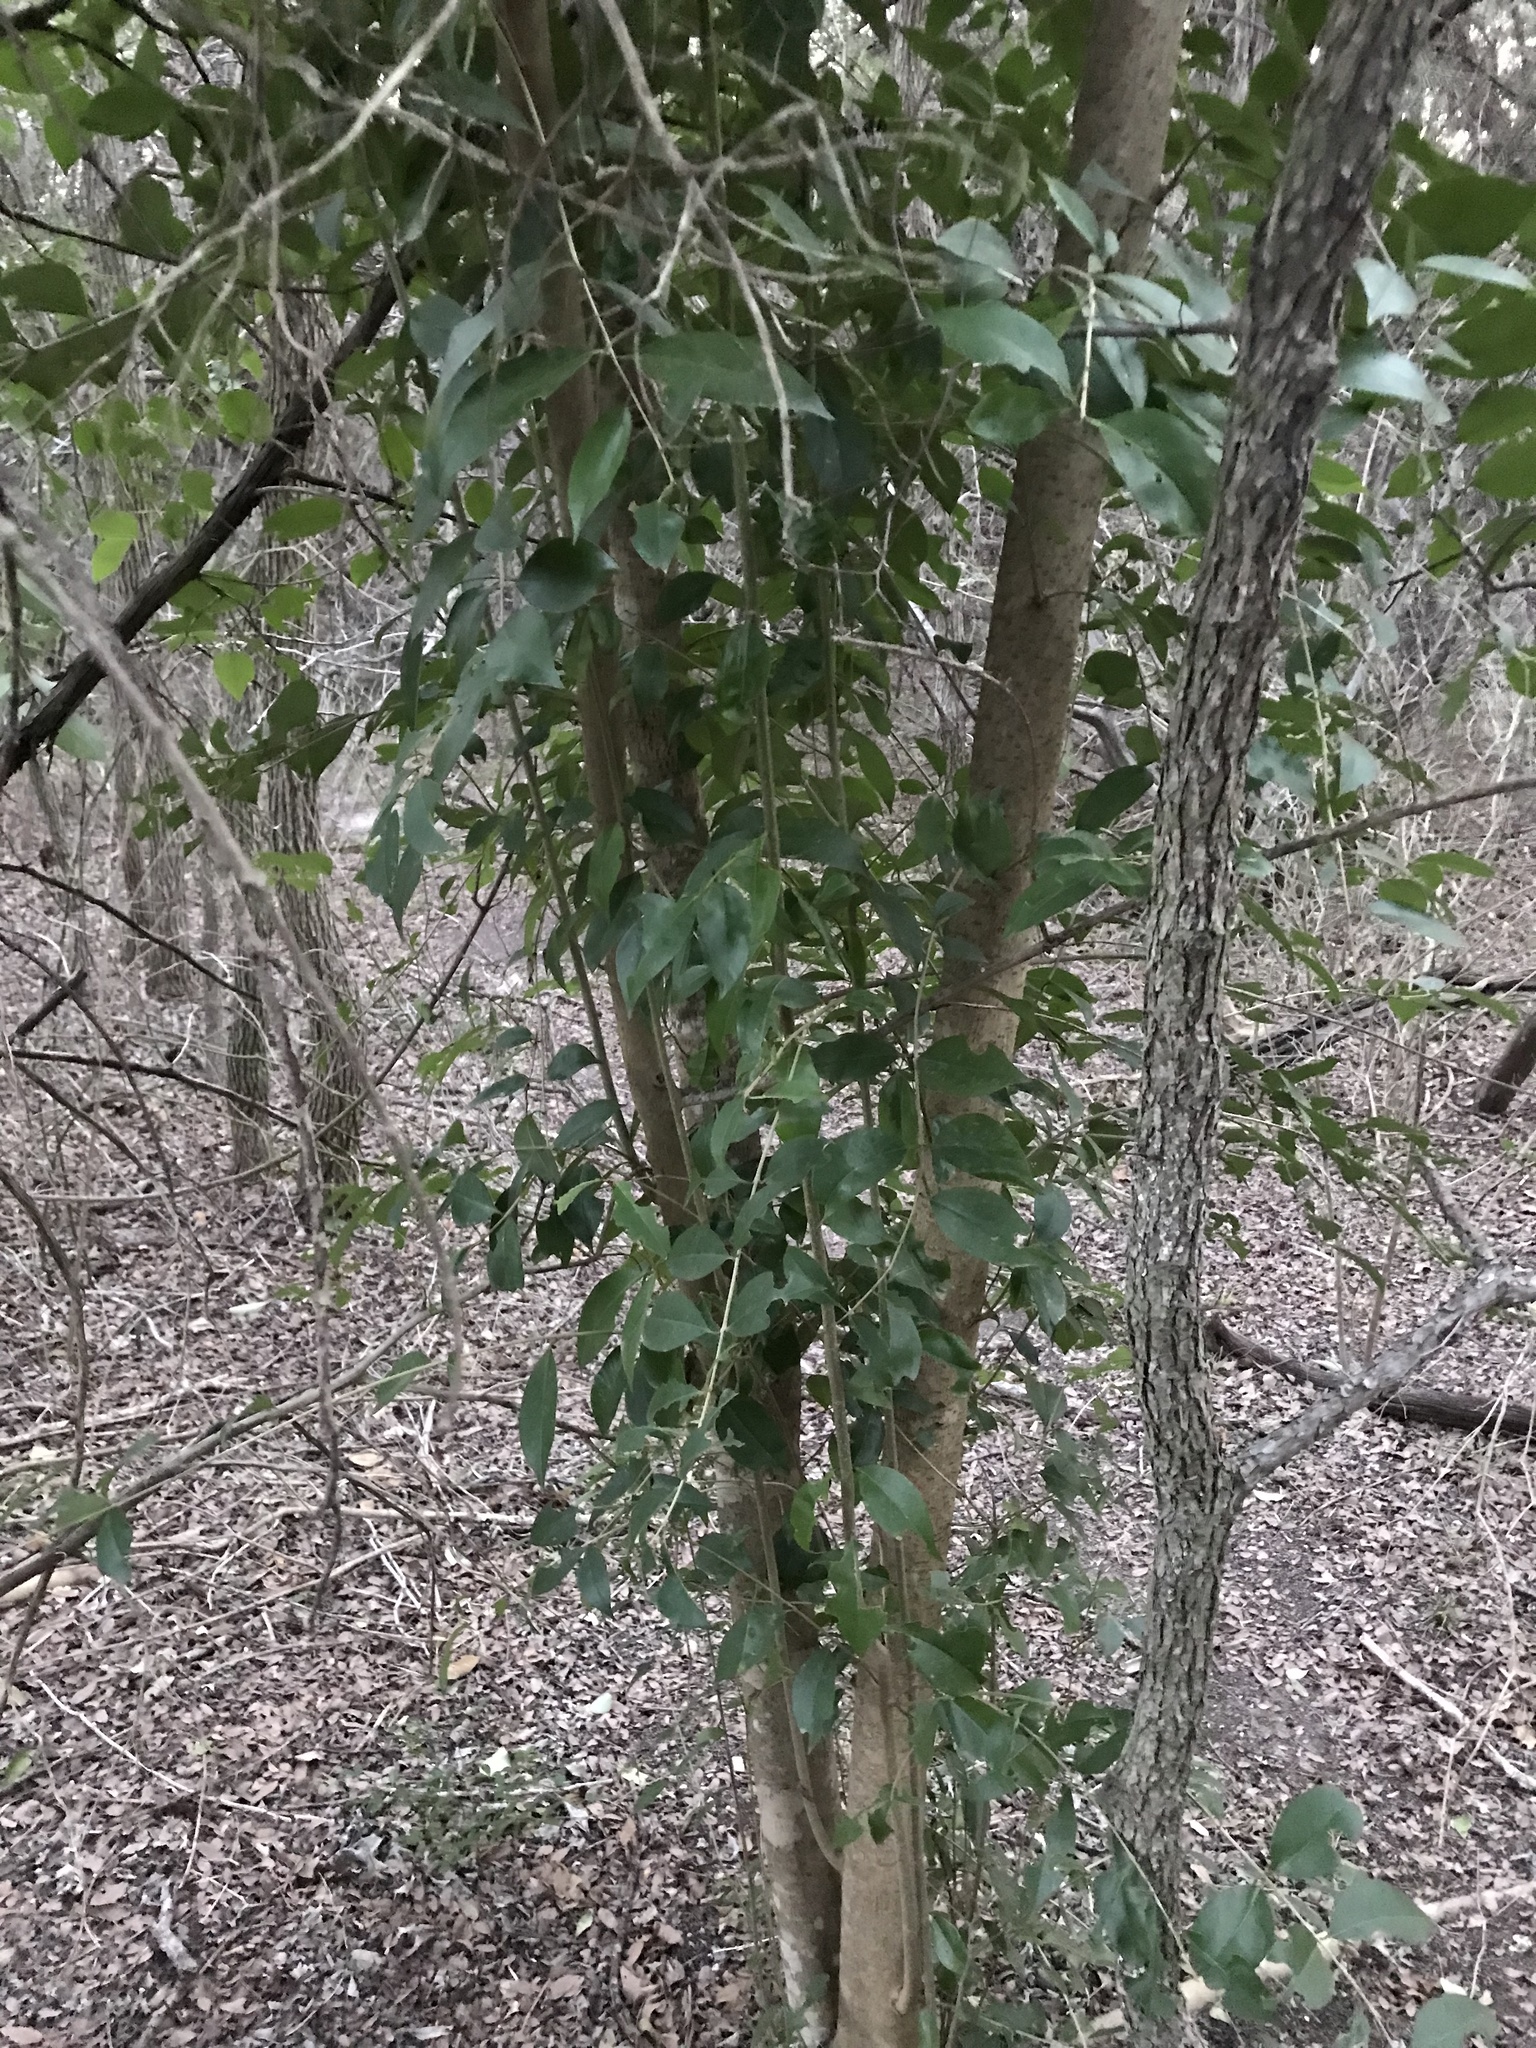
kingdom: Plantae
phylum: Tracheophyta
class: Magnoliopsida
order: Lamiales
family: Oleaceae
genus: Ligustrum
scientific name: Ligustrum lucidum
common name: Glossy privet
